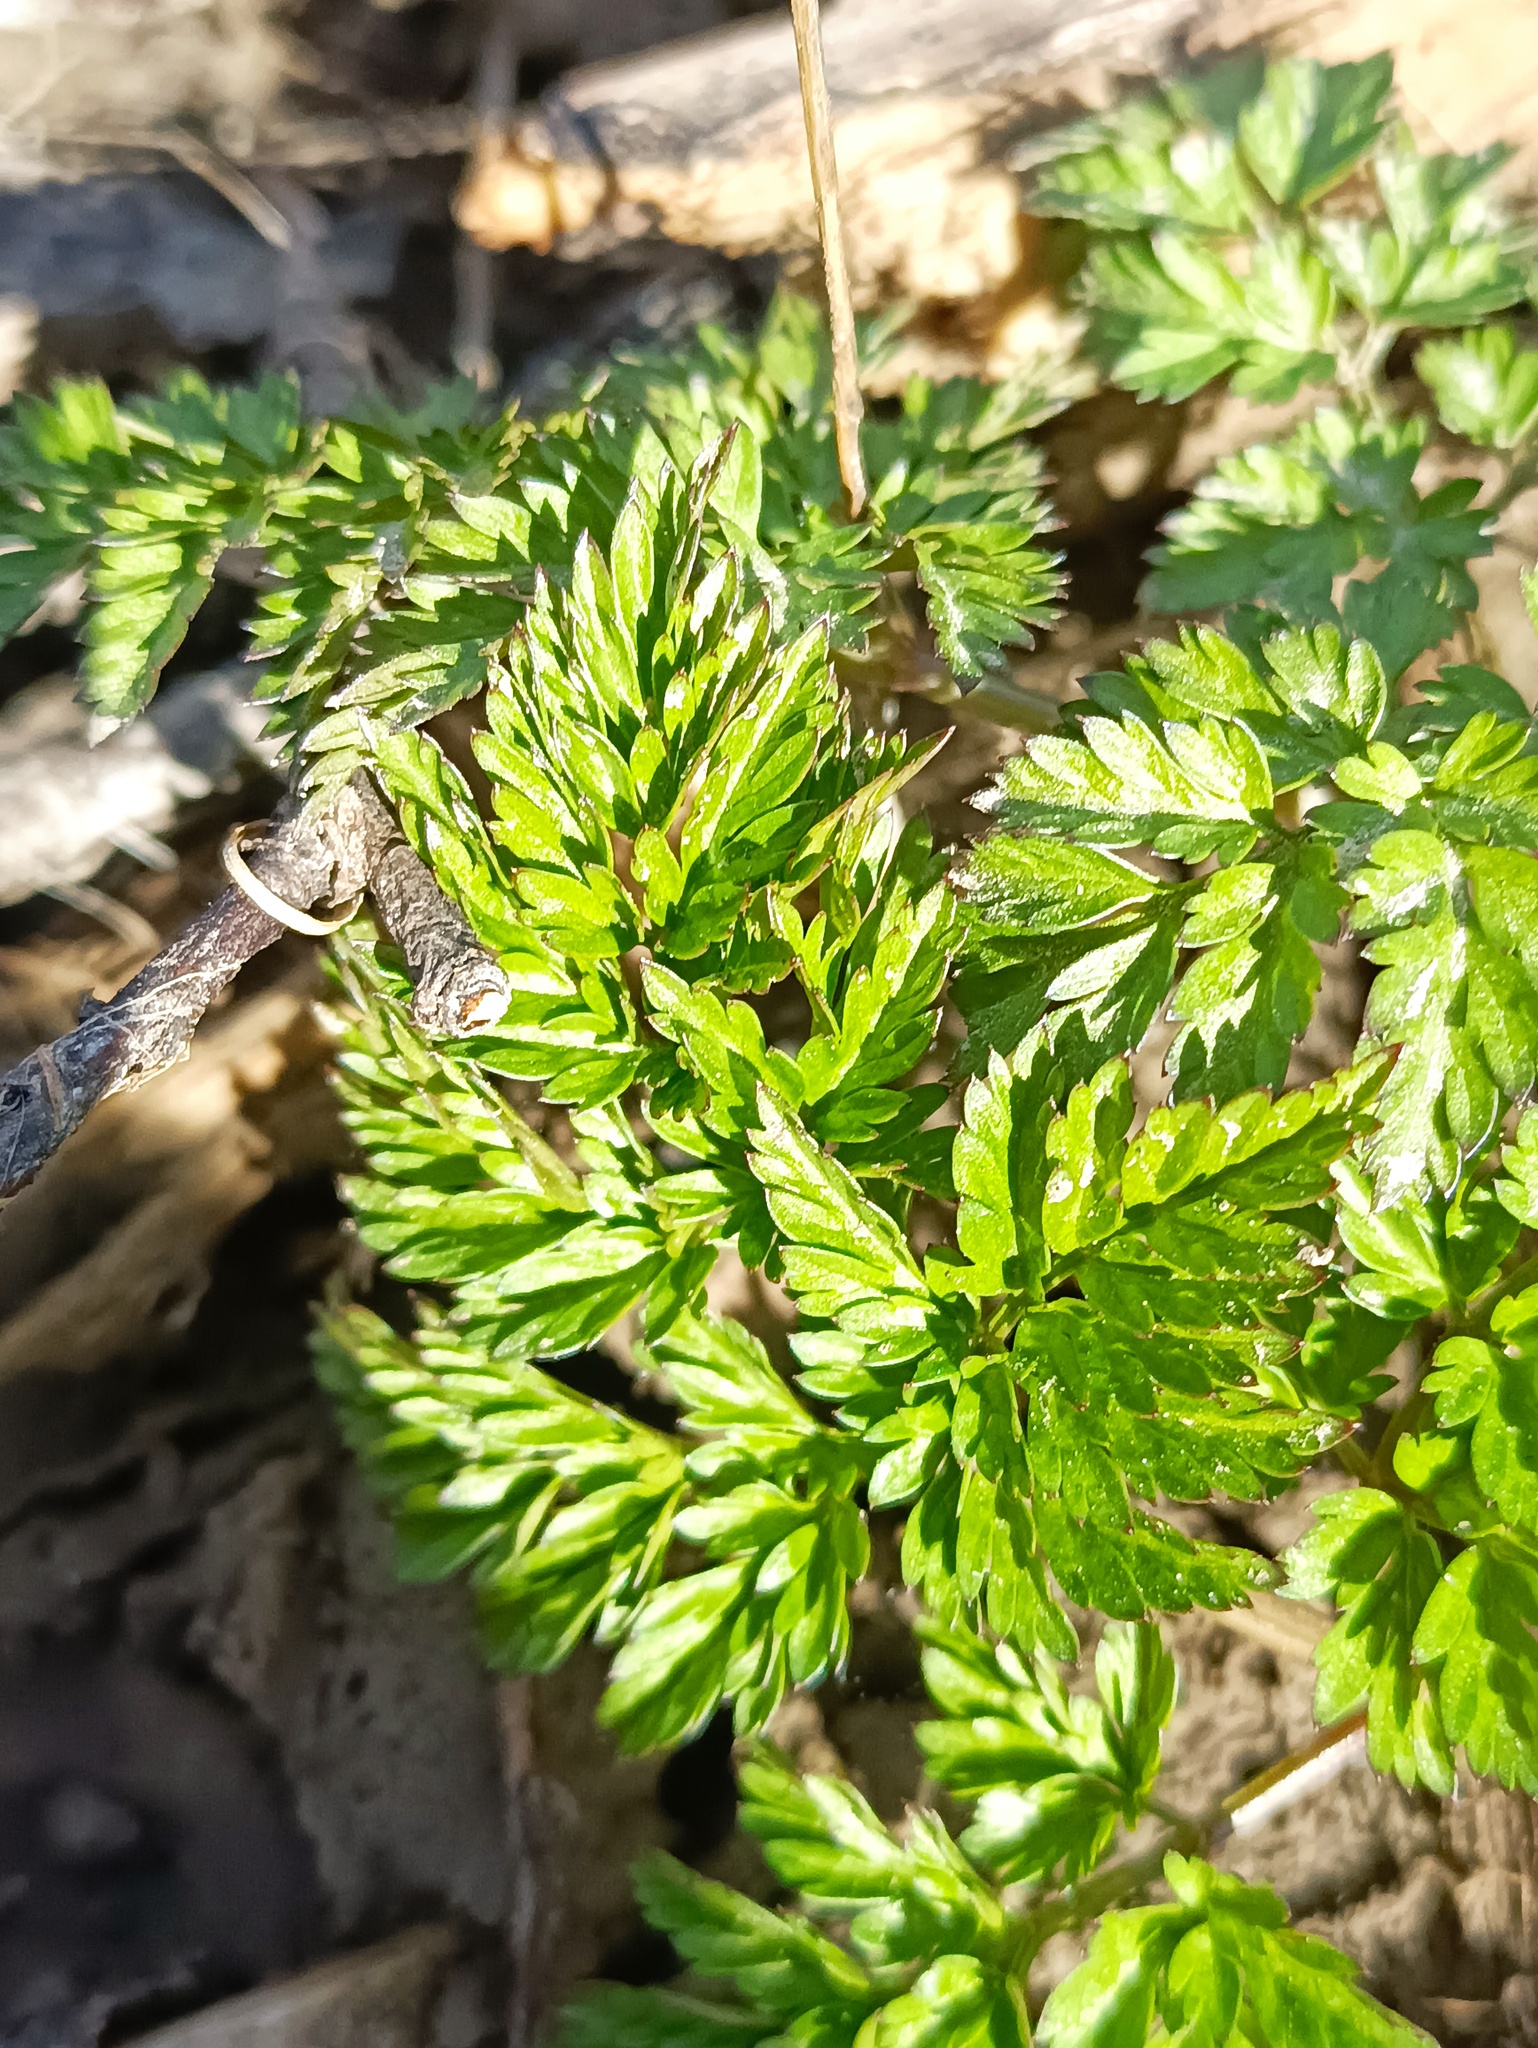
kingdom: Plantae
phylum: Tracheophyta
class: Magnoliopsida
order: Apiales
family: Apiaceae
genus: Anthriscus
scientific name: Anthriscus sylvestris
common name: Cow parsley
